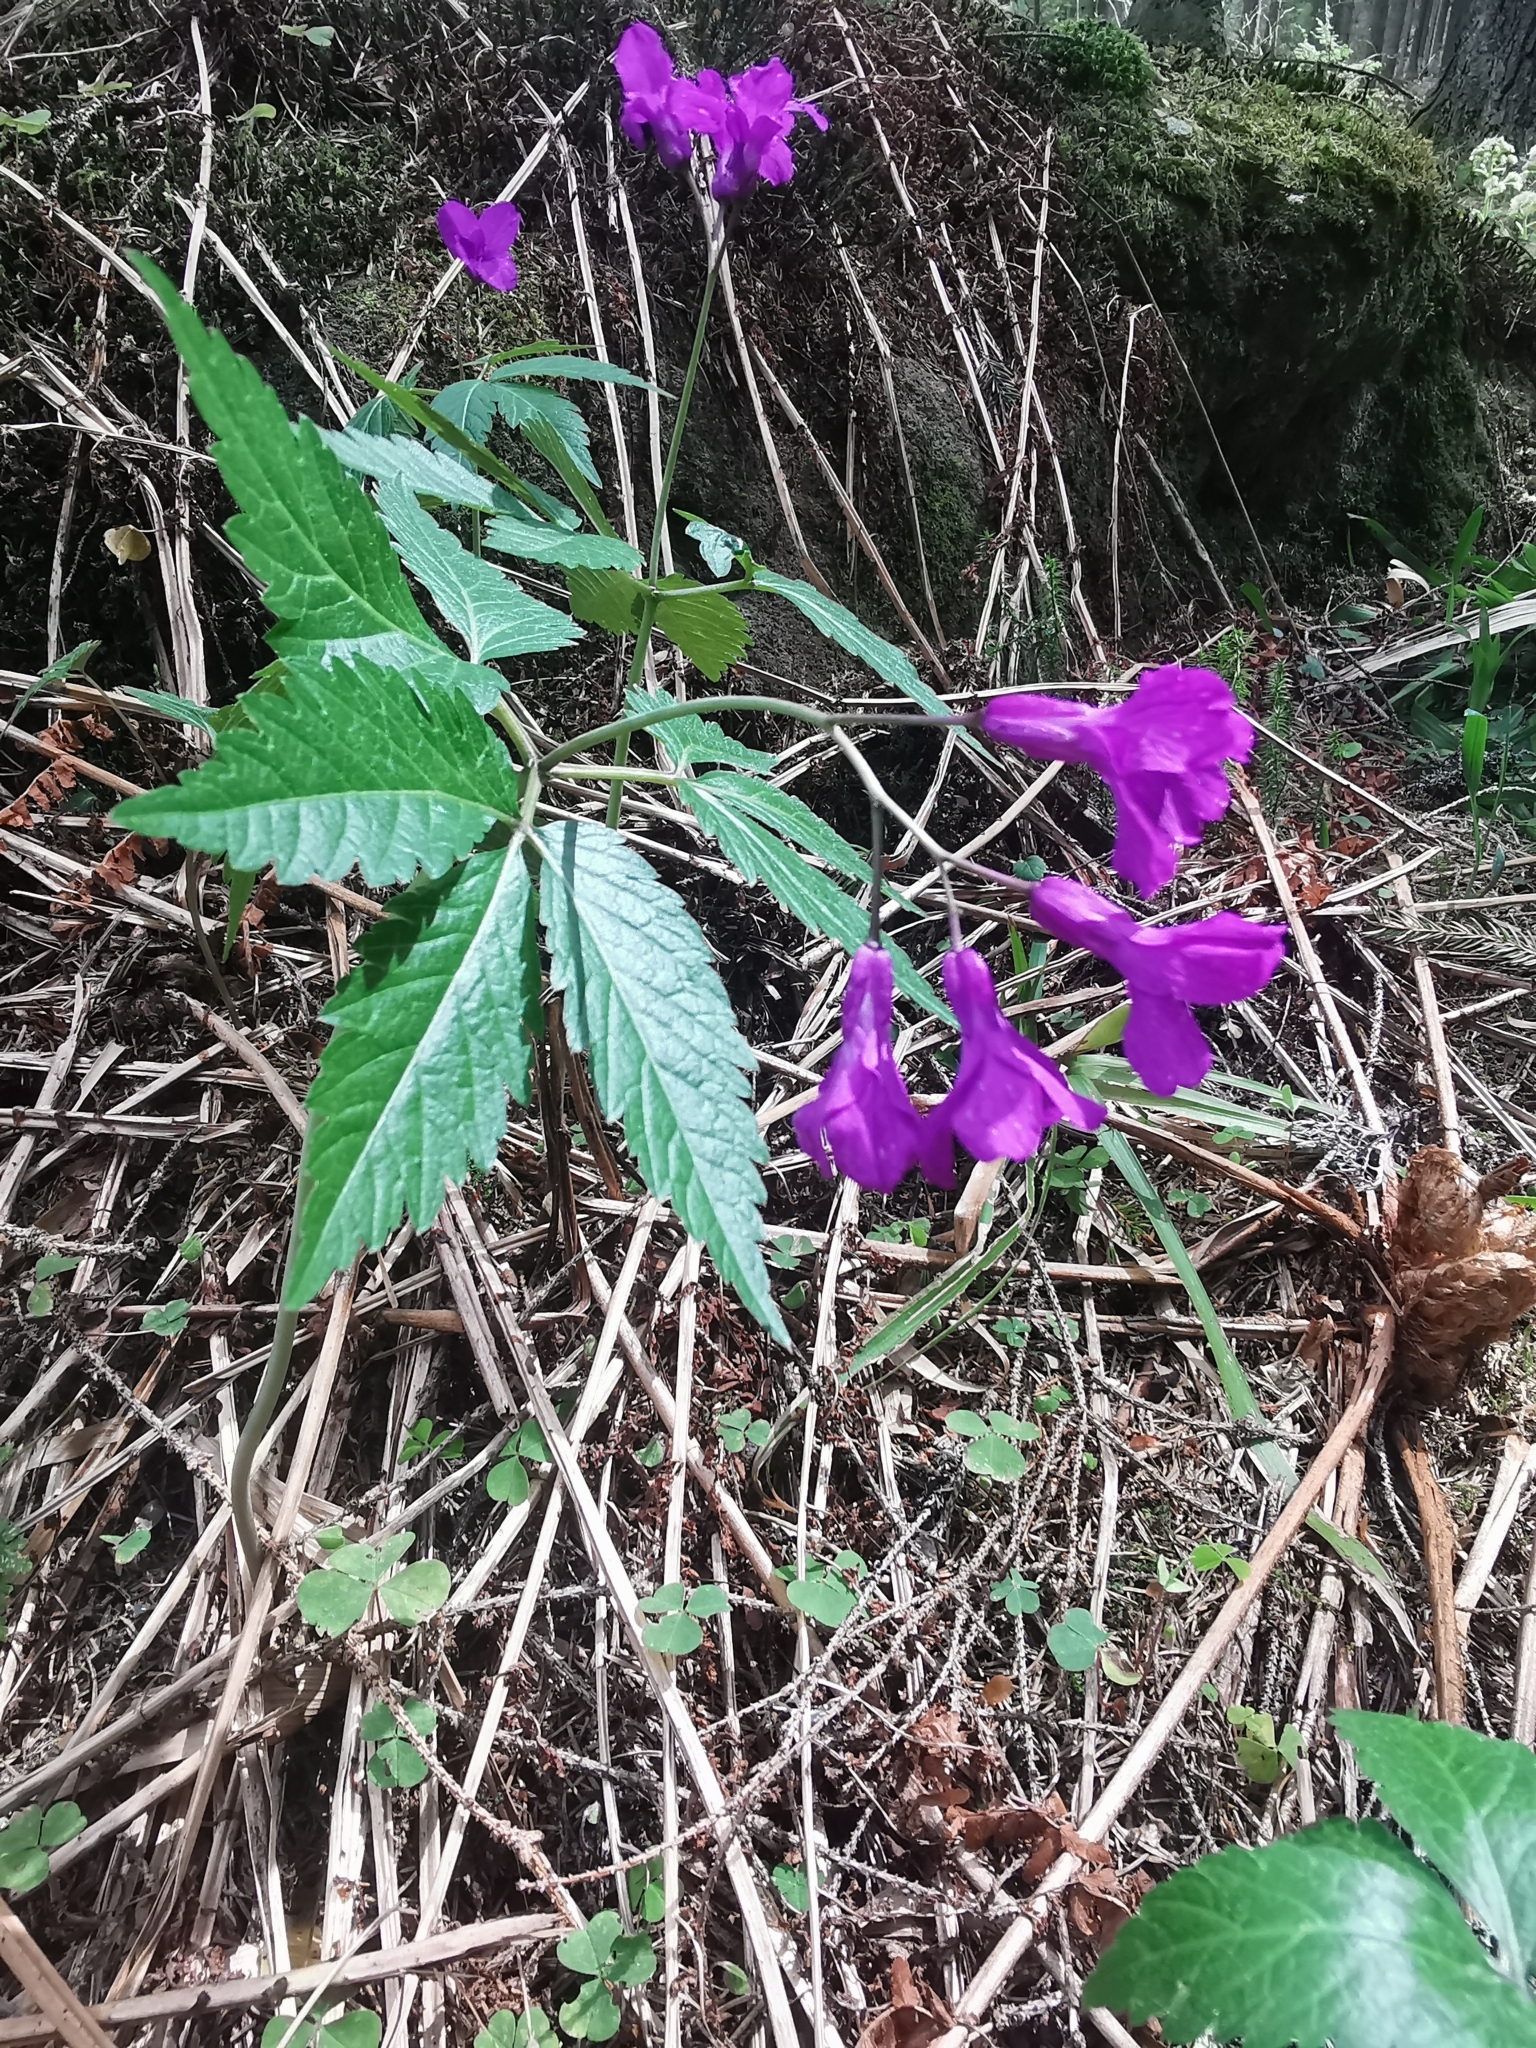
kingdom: Plantae
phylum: Tracheophyta
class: Magnoliopsida
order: Brassicales
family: Brassicaceae
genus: Cardamine
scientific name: Cardamine glanduligera
